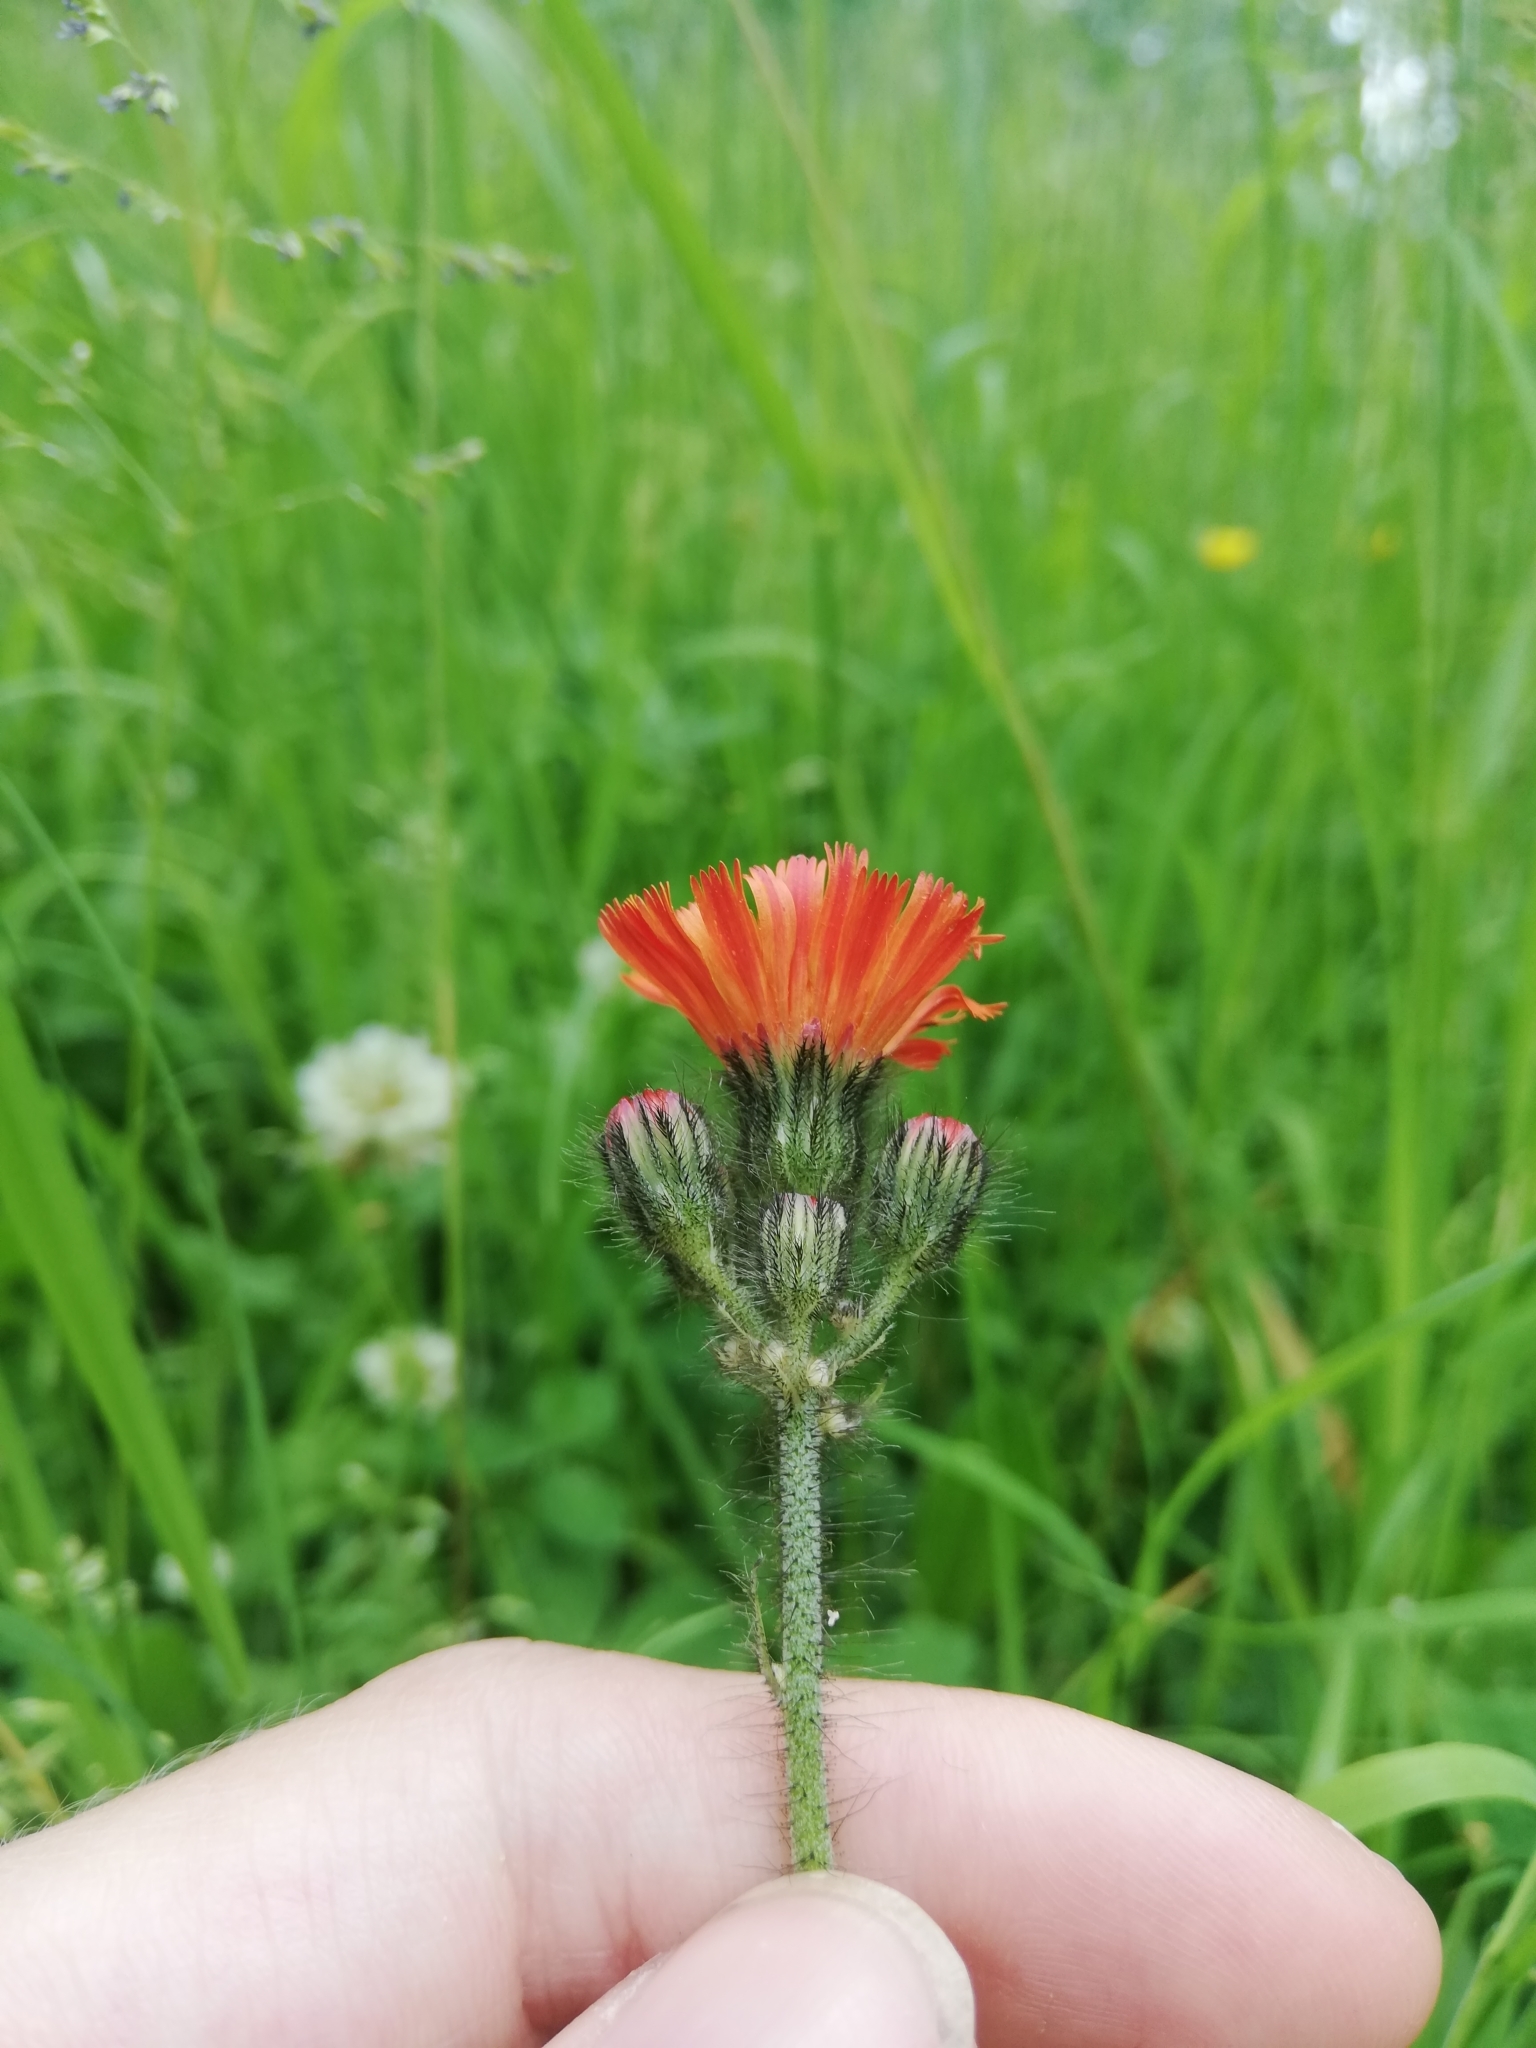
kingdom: Plantae
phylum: Tracheophyta
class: Magnoliopsida
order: Asterales
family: Asteraceae
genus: Pilosella
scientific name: Pilosella aurantiaca
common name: Fox-and-cubs
